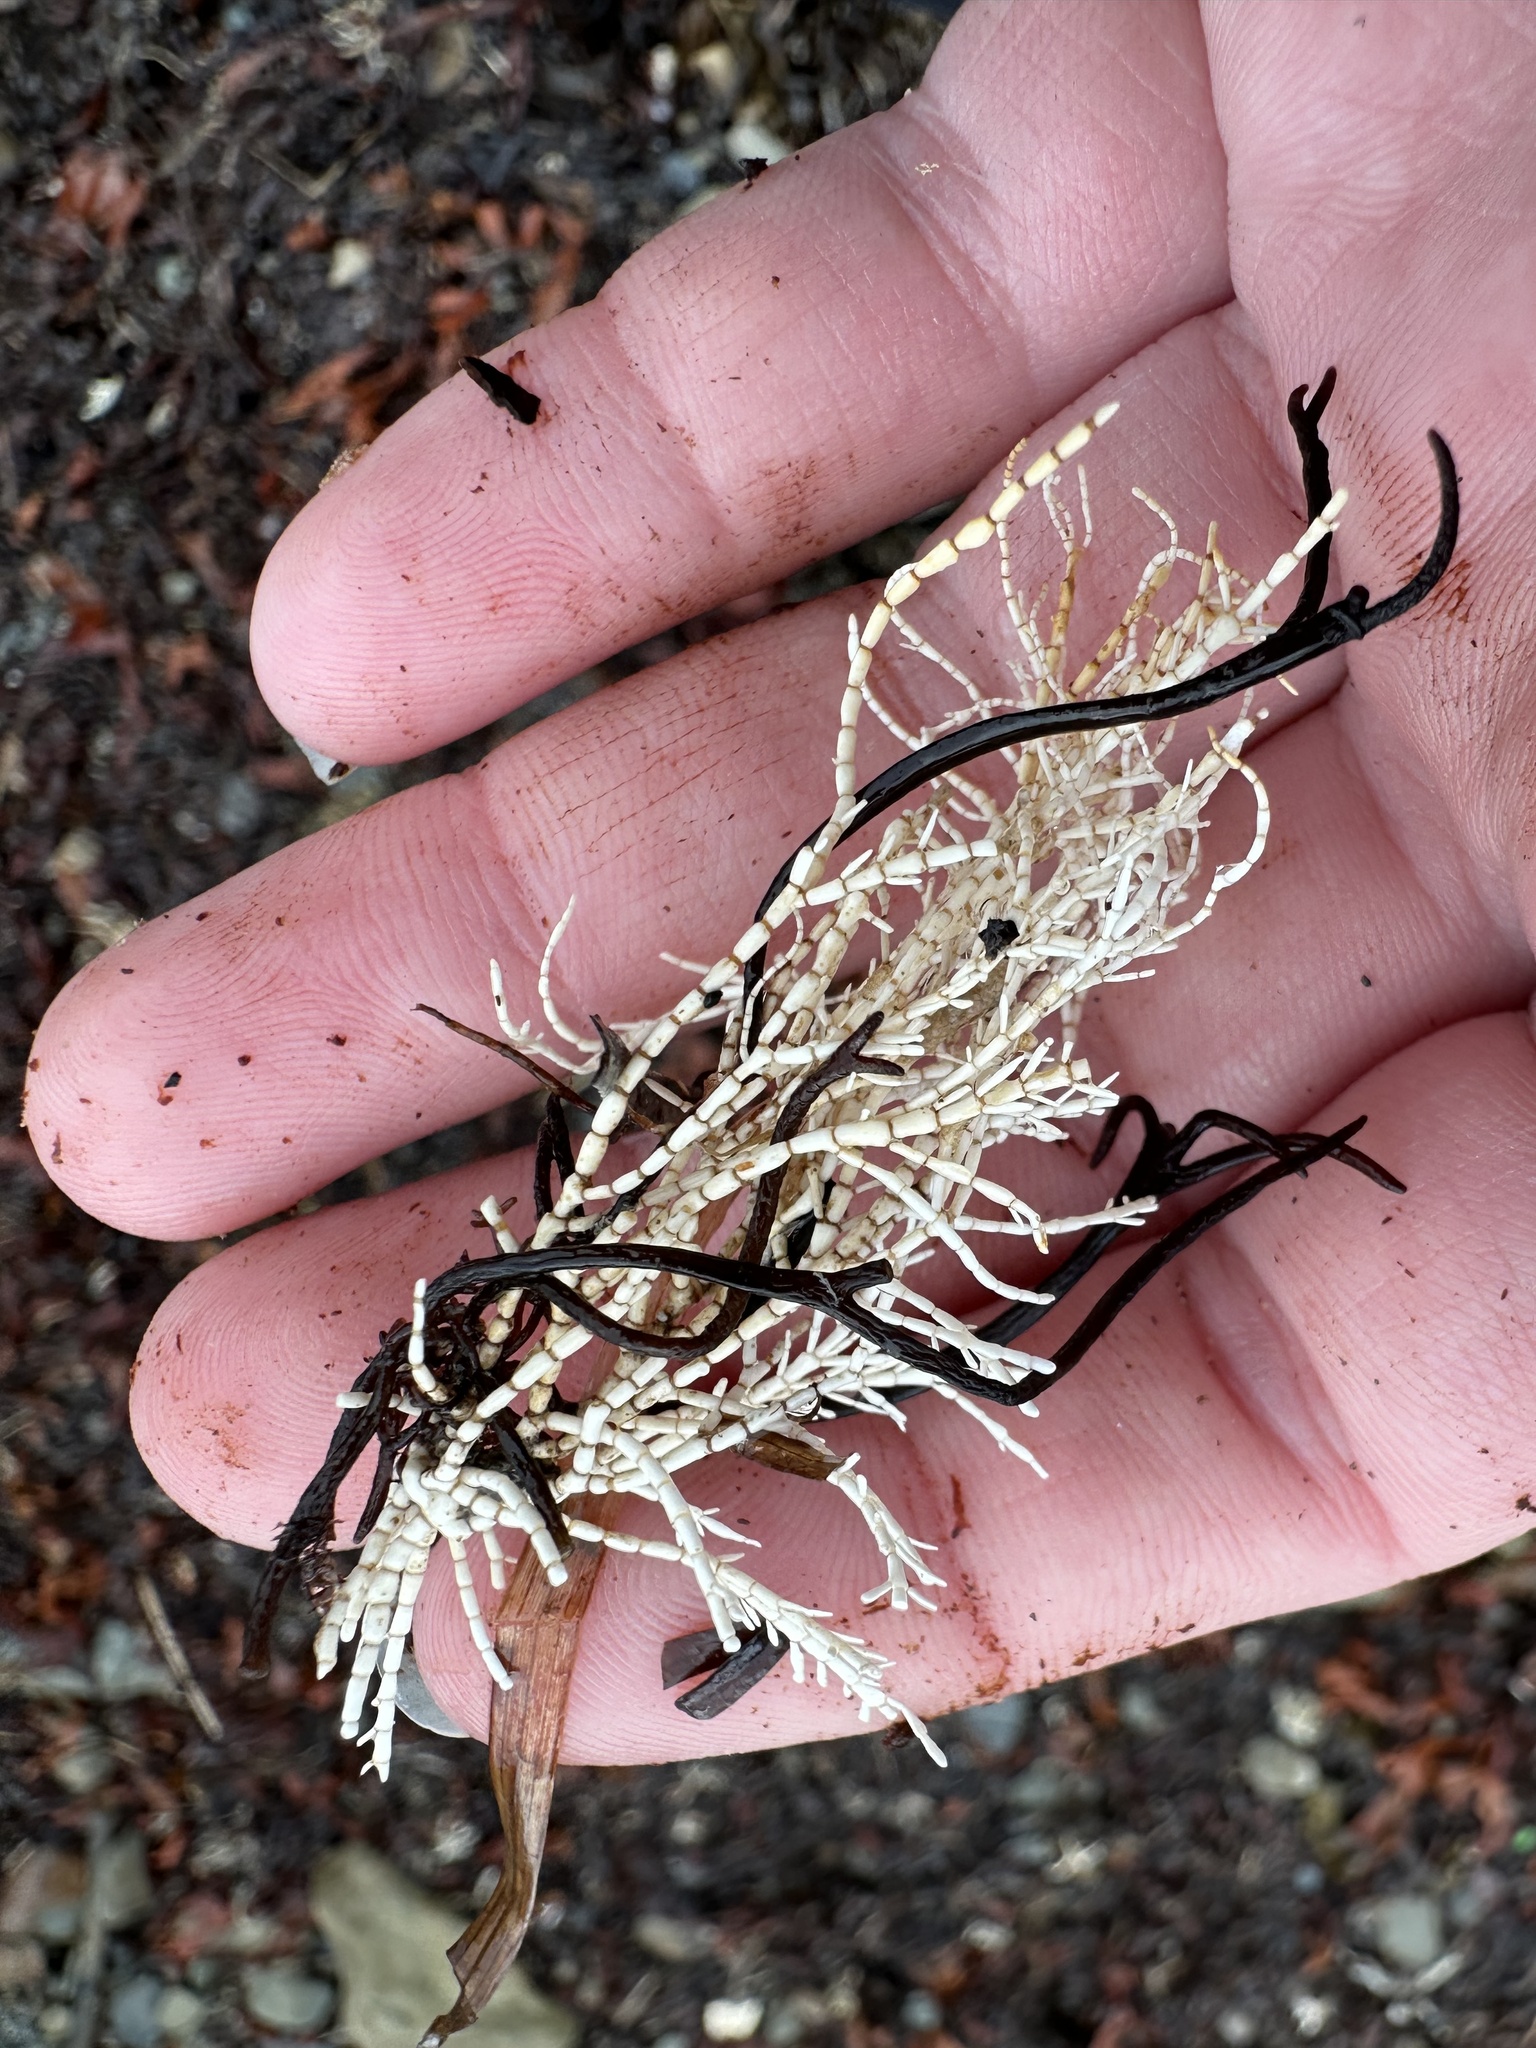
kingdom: Plantae
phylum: Rhodophyta
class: Florideophyceae
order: Corallinales
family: Corallinaceae
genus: Corallina
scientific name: Corallina officinalis
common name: Coral weed
